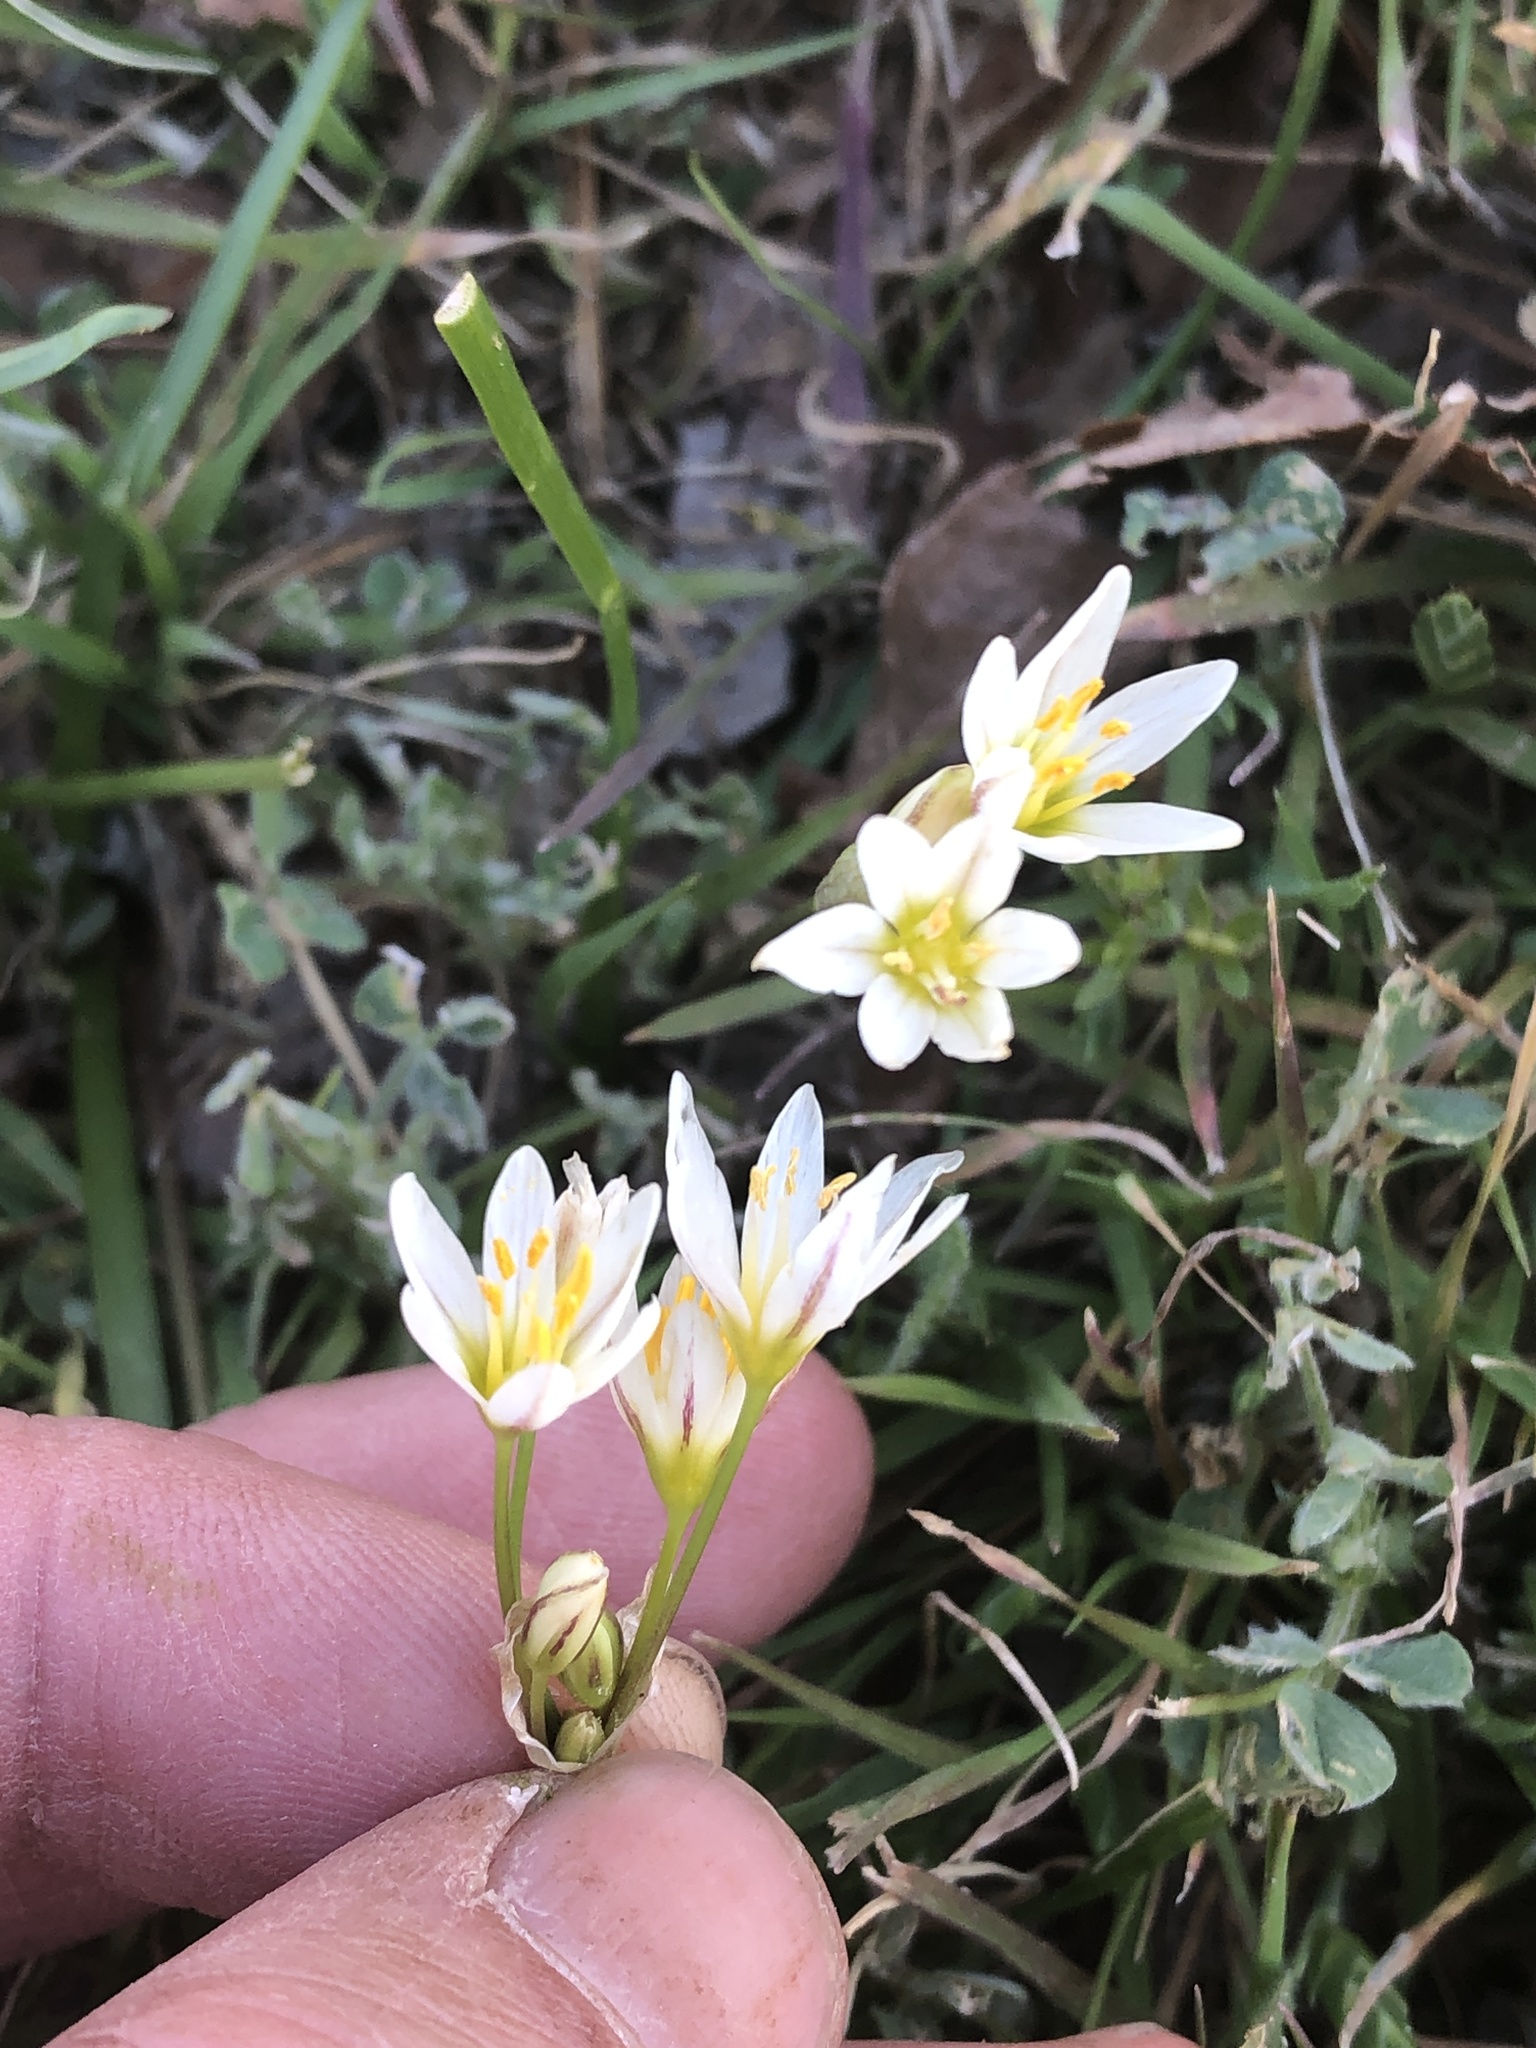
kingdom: Plantae
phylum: Tracheophyta
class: Liliopsida
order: Asparagales
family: Amaryllidaceae
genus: Nothoscordum
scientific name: Nothoscordum bivalve
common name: Crow-poison
